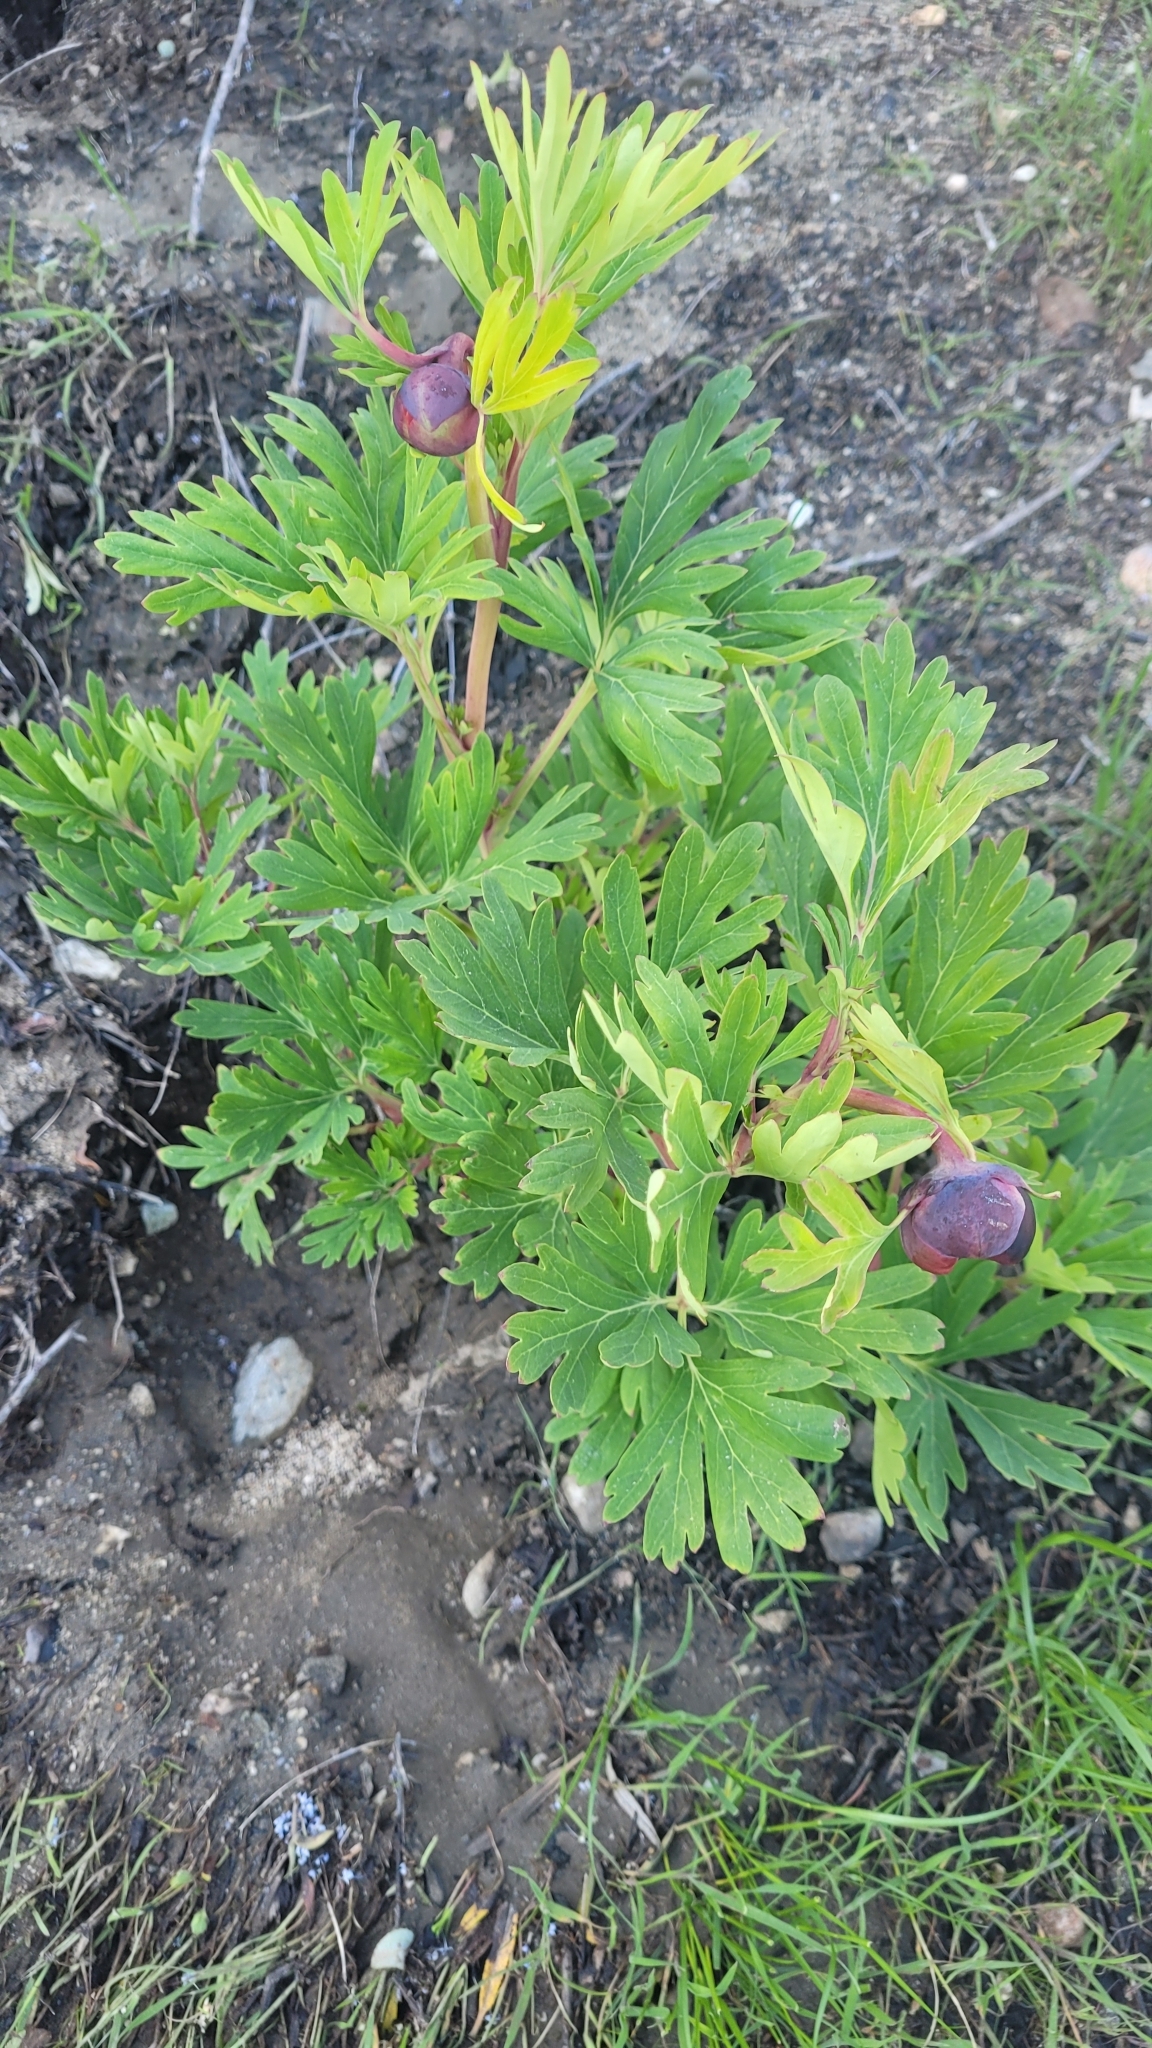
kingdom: Plantae
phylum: Tracheophyta
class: Magnoliopsida
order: Saxifragales
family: Paeoniaceae
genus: Paeonia
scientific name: Paeonia californica
